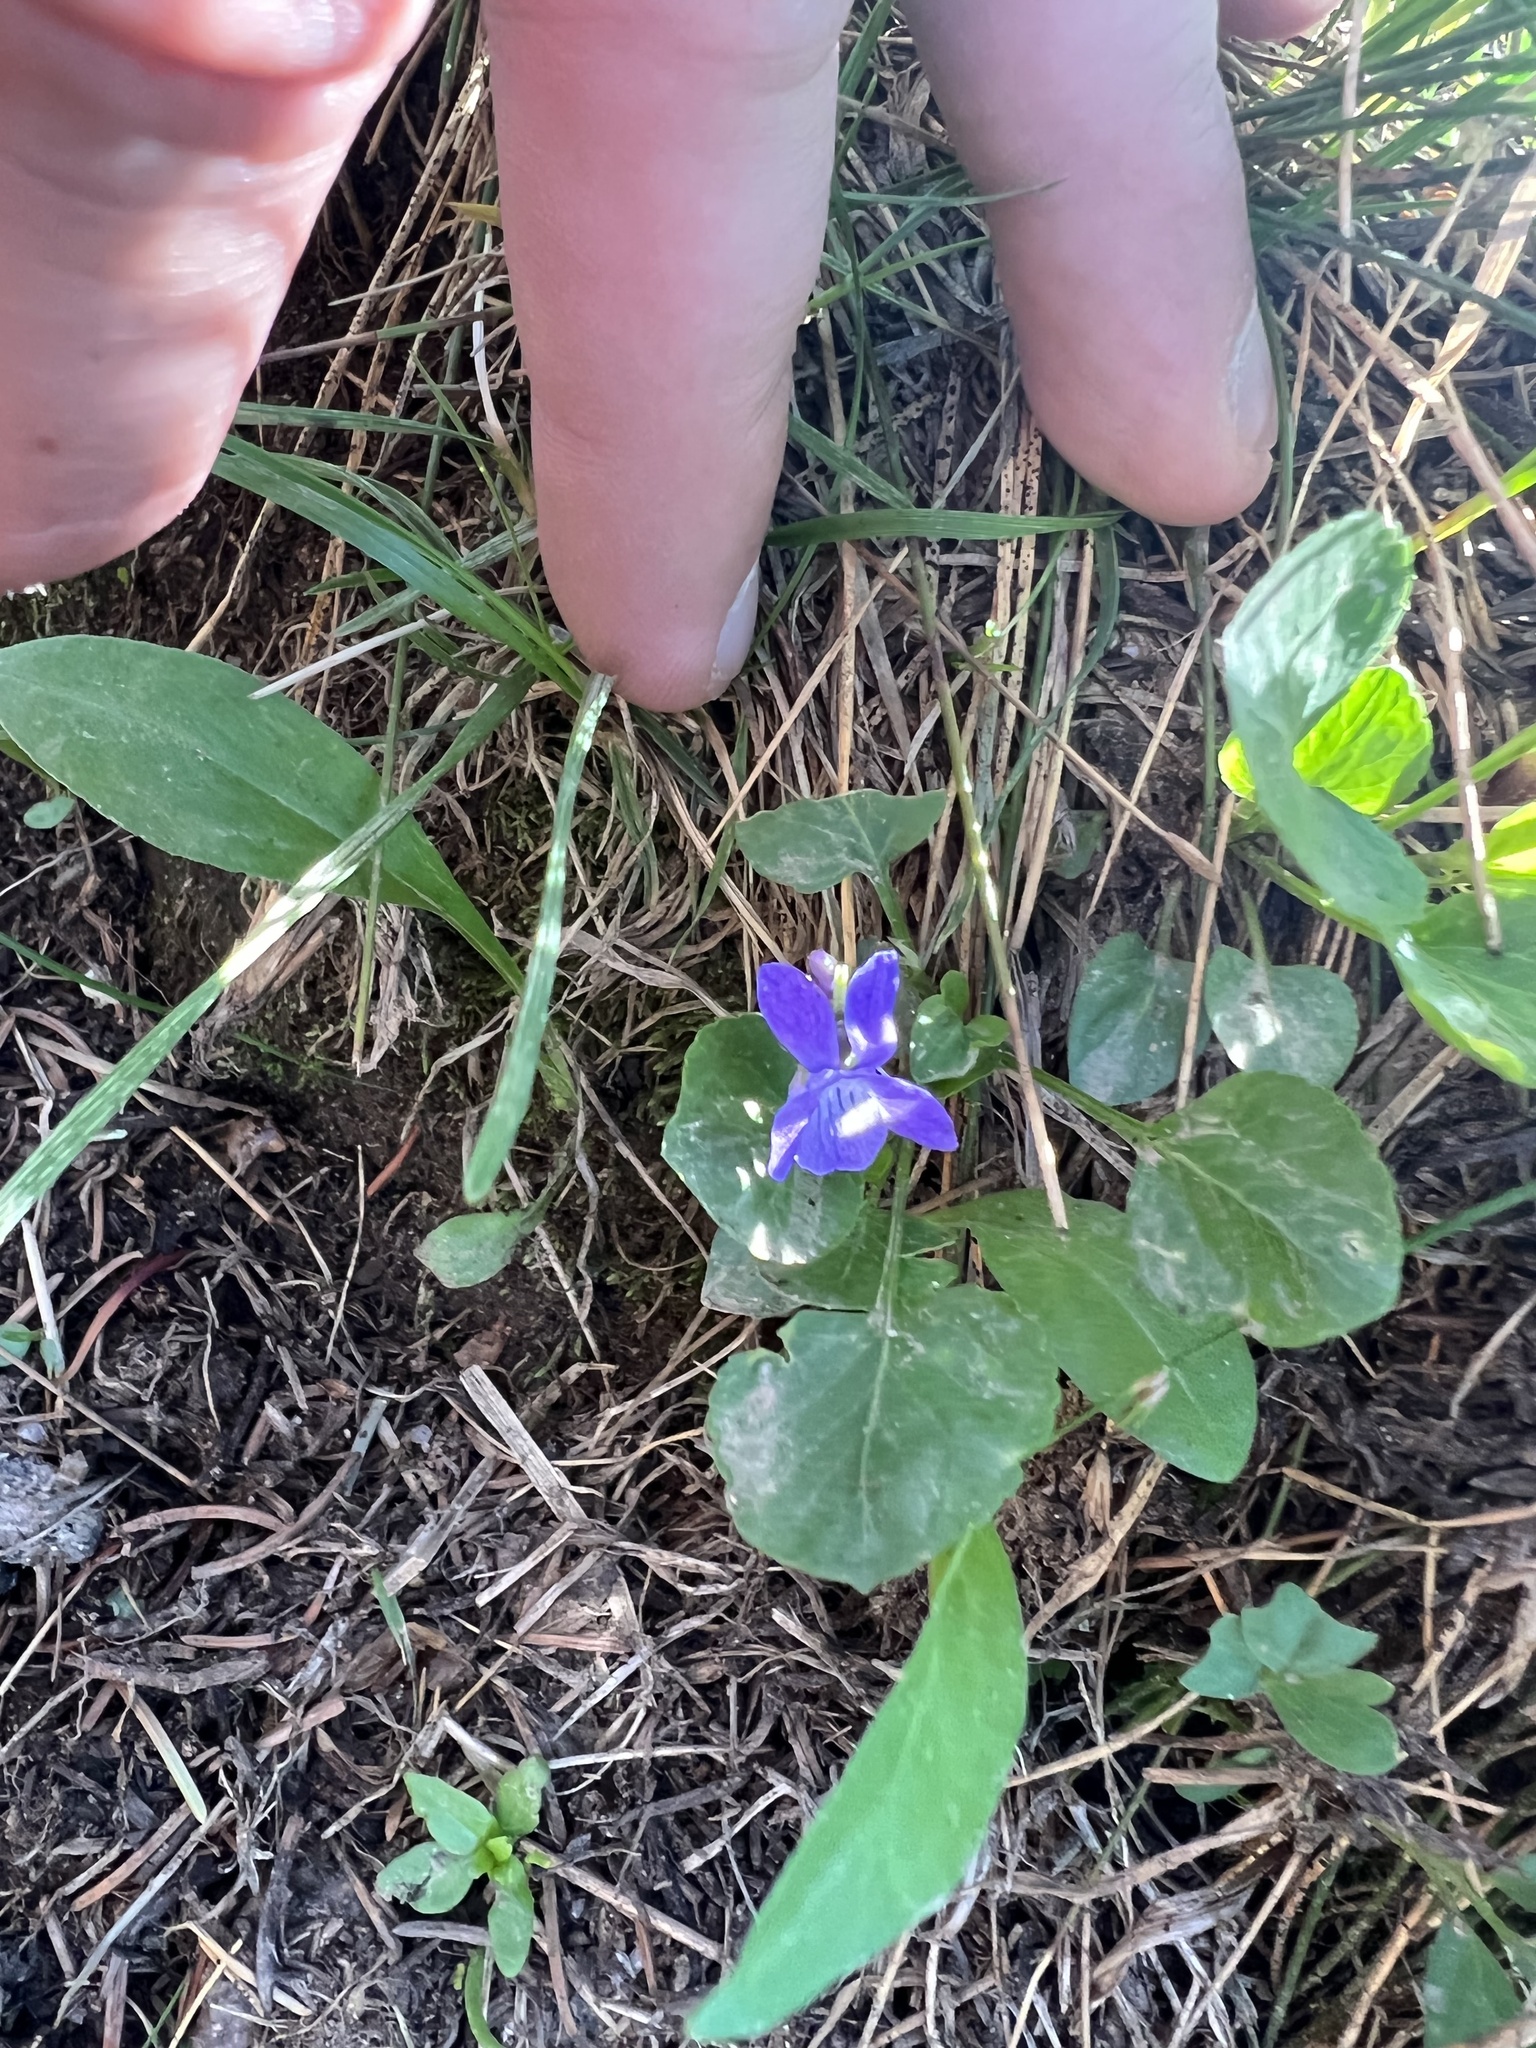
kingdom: Plantae
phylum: Tracheophyta
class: Magnoliopsida
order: Malpighiales
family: Violaceae
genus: Viola
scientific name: Viola adunca
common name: Sand violet
